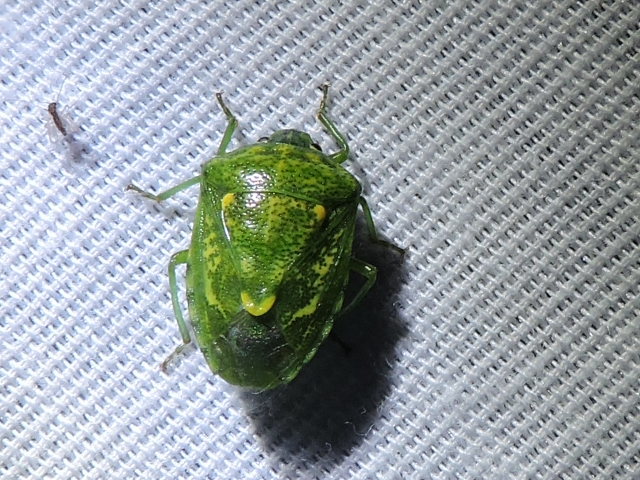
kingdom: Animalia
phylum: Arthropoda
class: Insecta
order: Hemiptera
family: Pentatomidae
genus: Banasa
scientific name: Banasa euchlora
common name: Cedar berry bug
